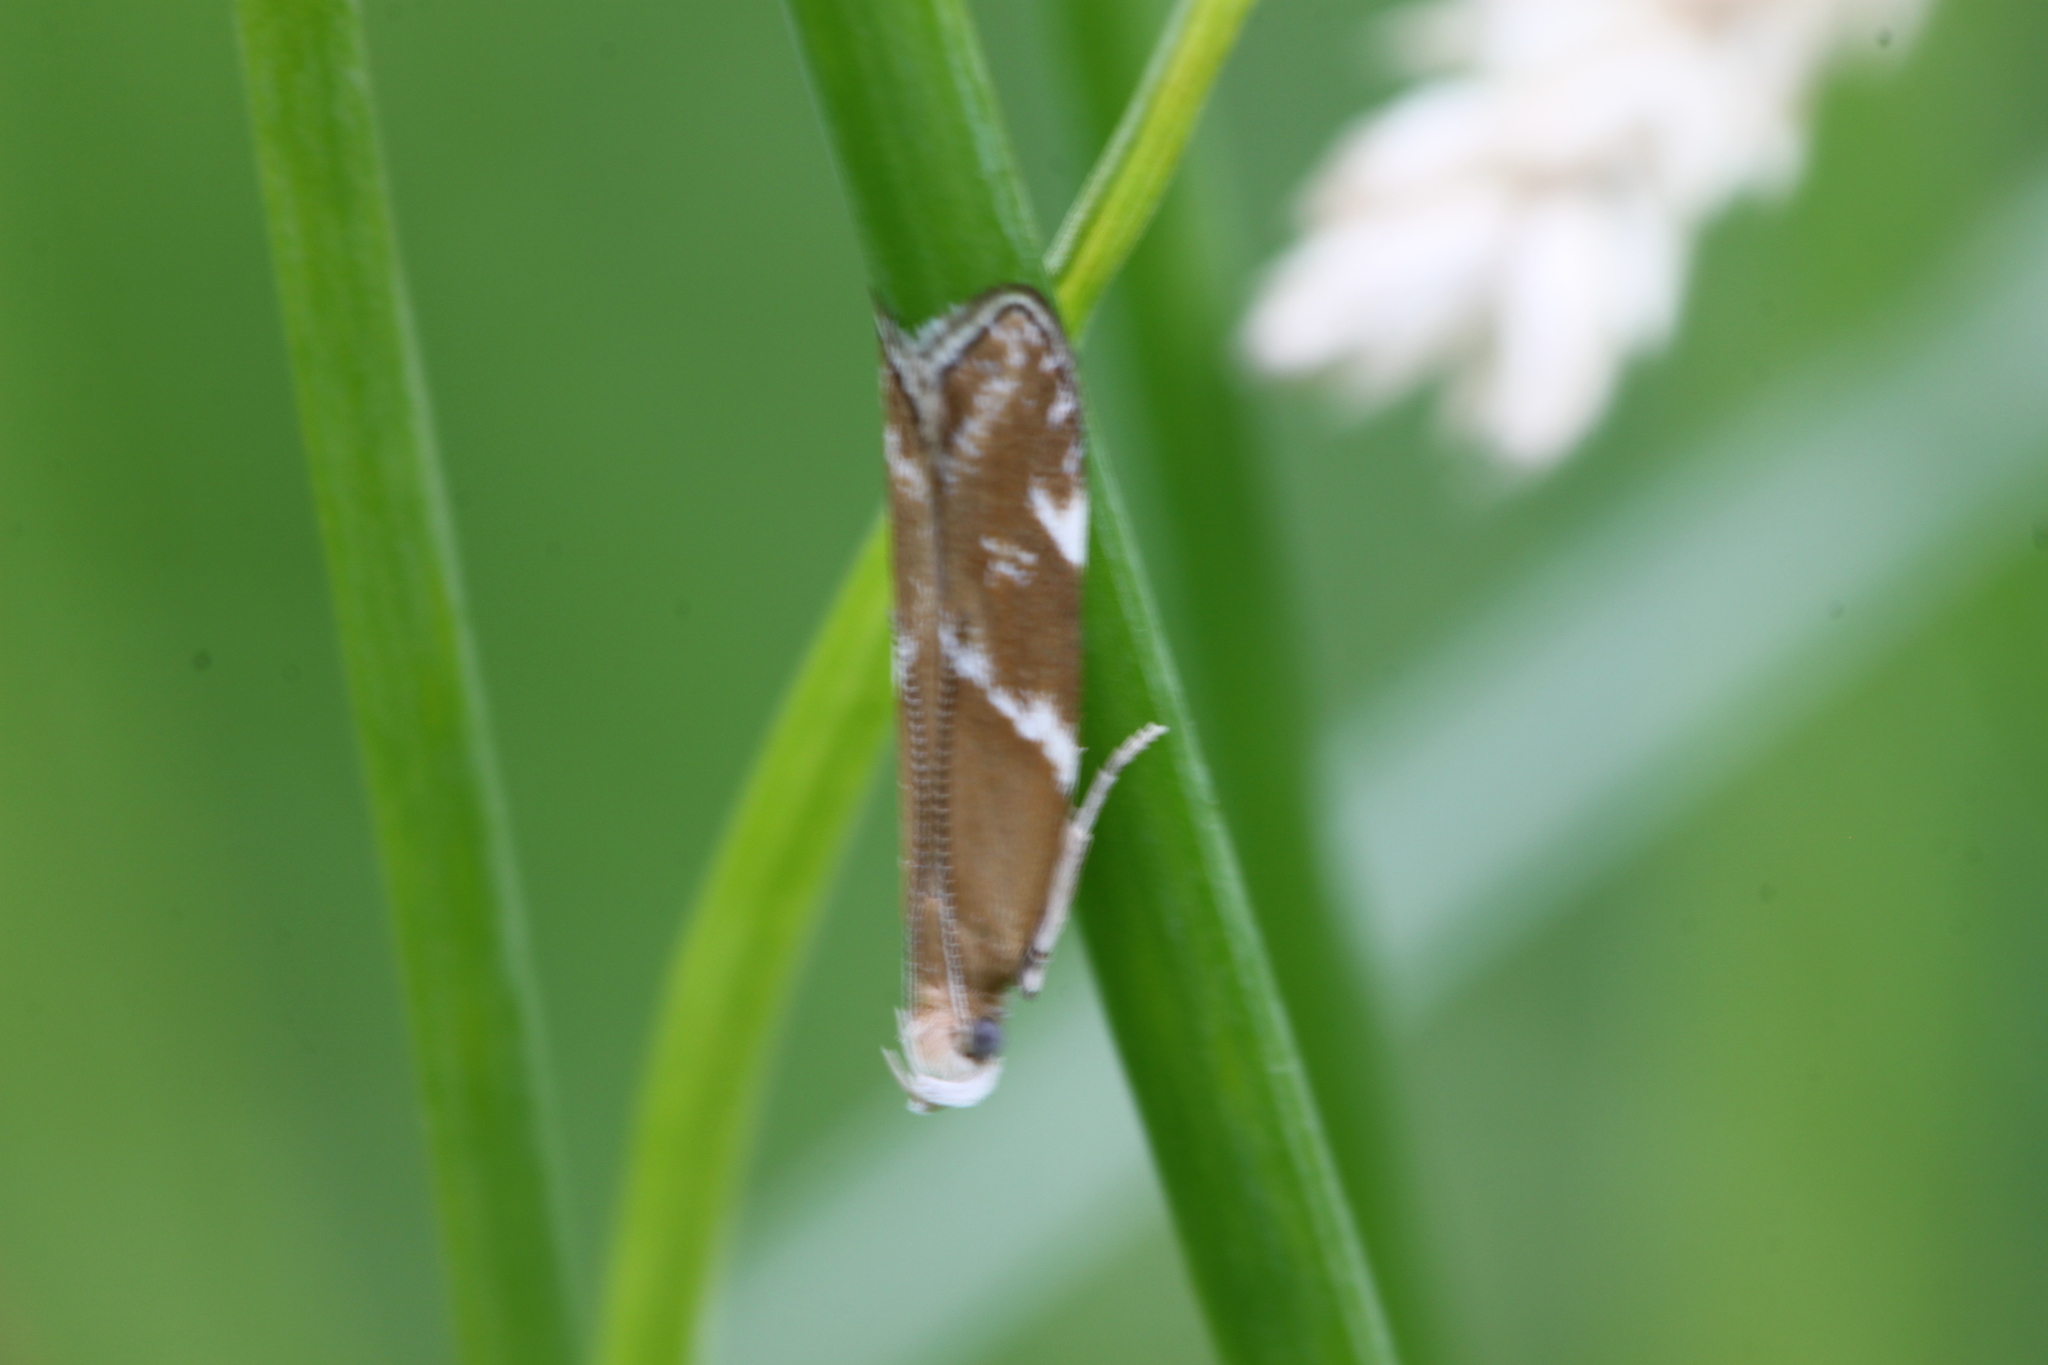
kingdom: Animalia
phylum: Arthropoda
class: Insecta
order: Lepidoptera
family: Depressariidae
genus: Orophia
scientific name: Orophia sordidella
